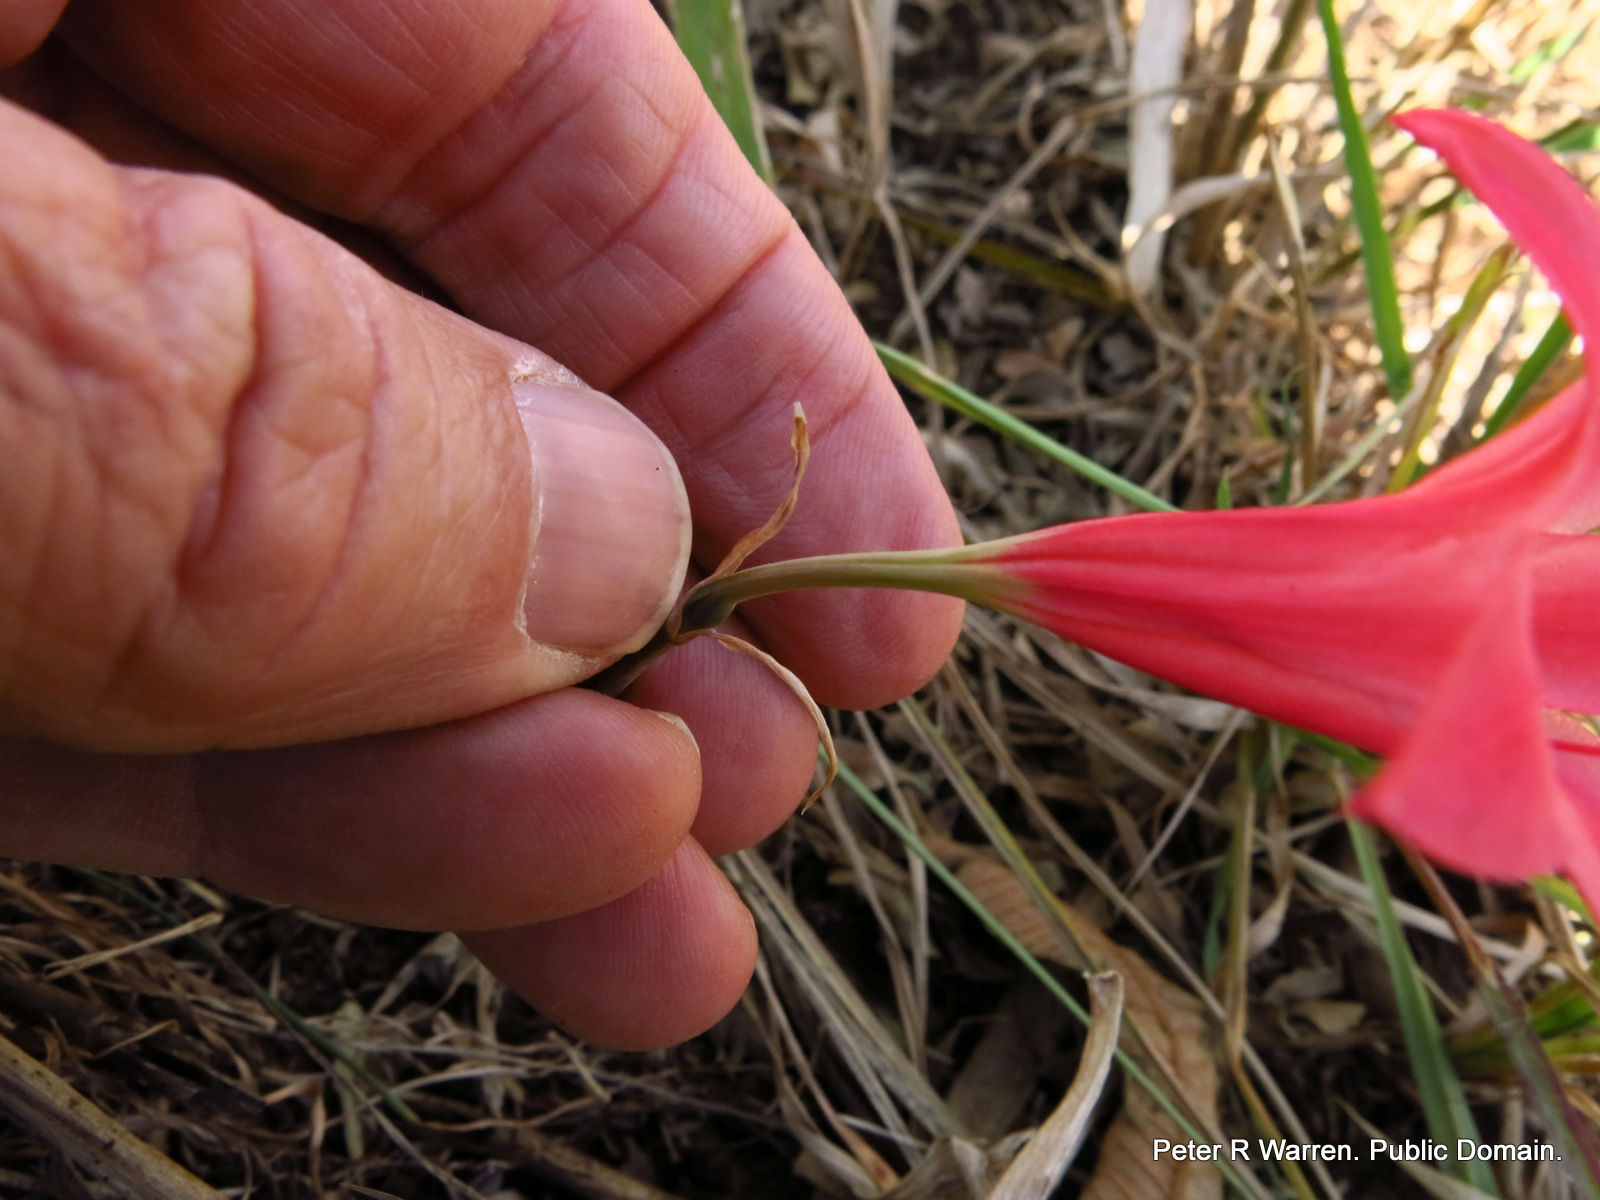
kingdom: Plantae
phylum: Tracheophyta
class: Liliopsida
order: Asparagales
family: Amaryllidaceae
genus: Cyrtanthus
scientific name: Cyrtanthus galpinii
